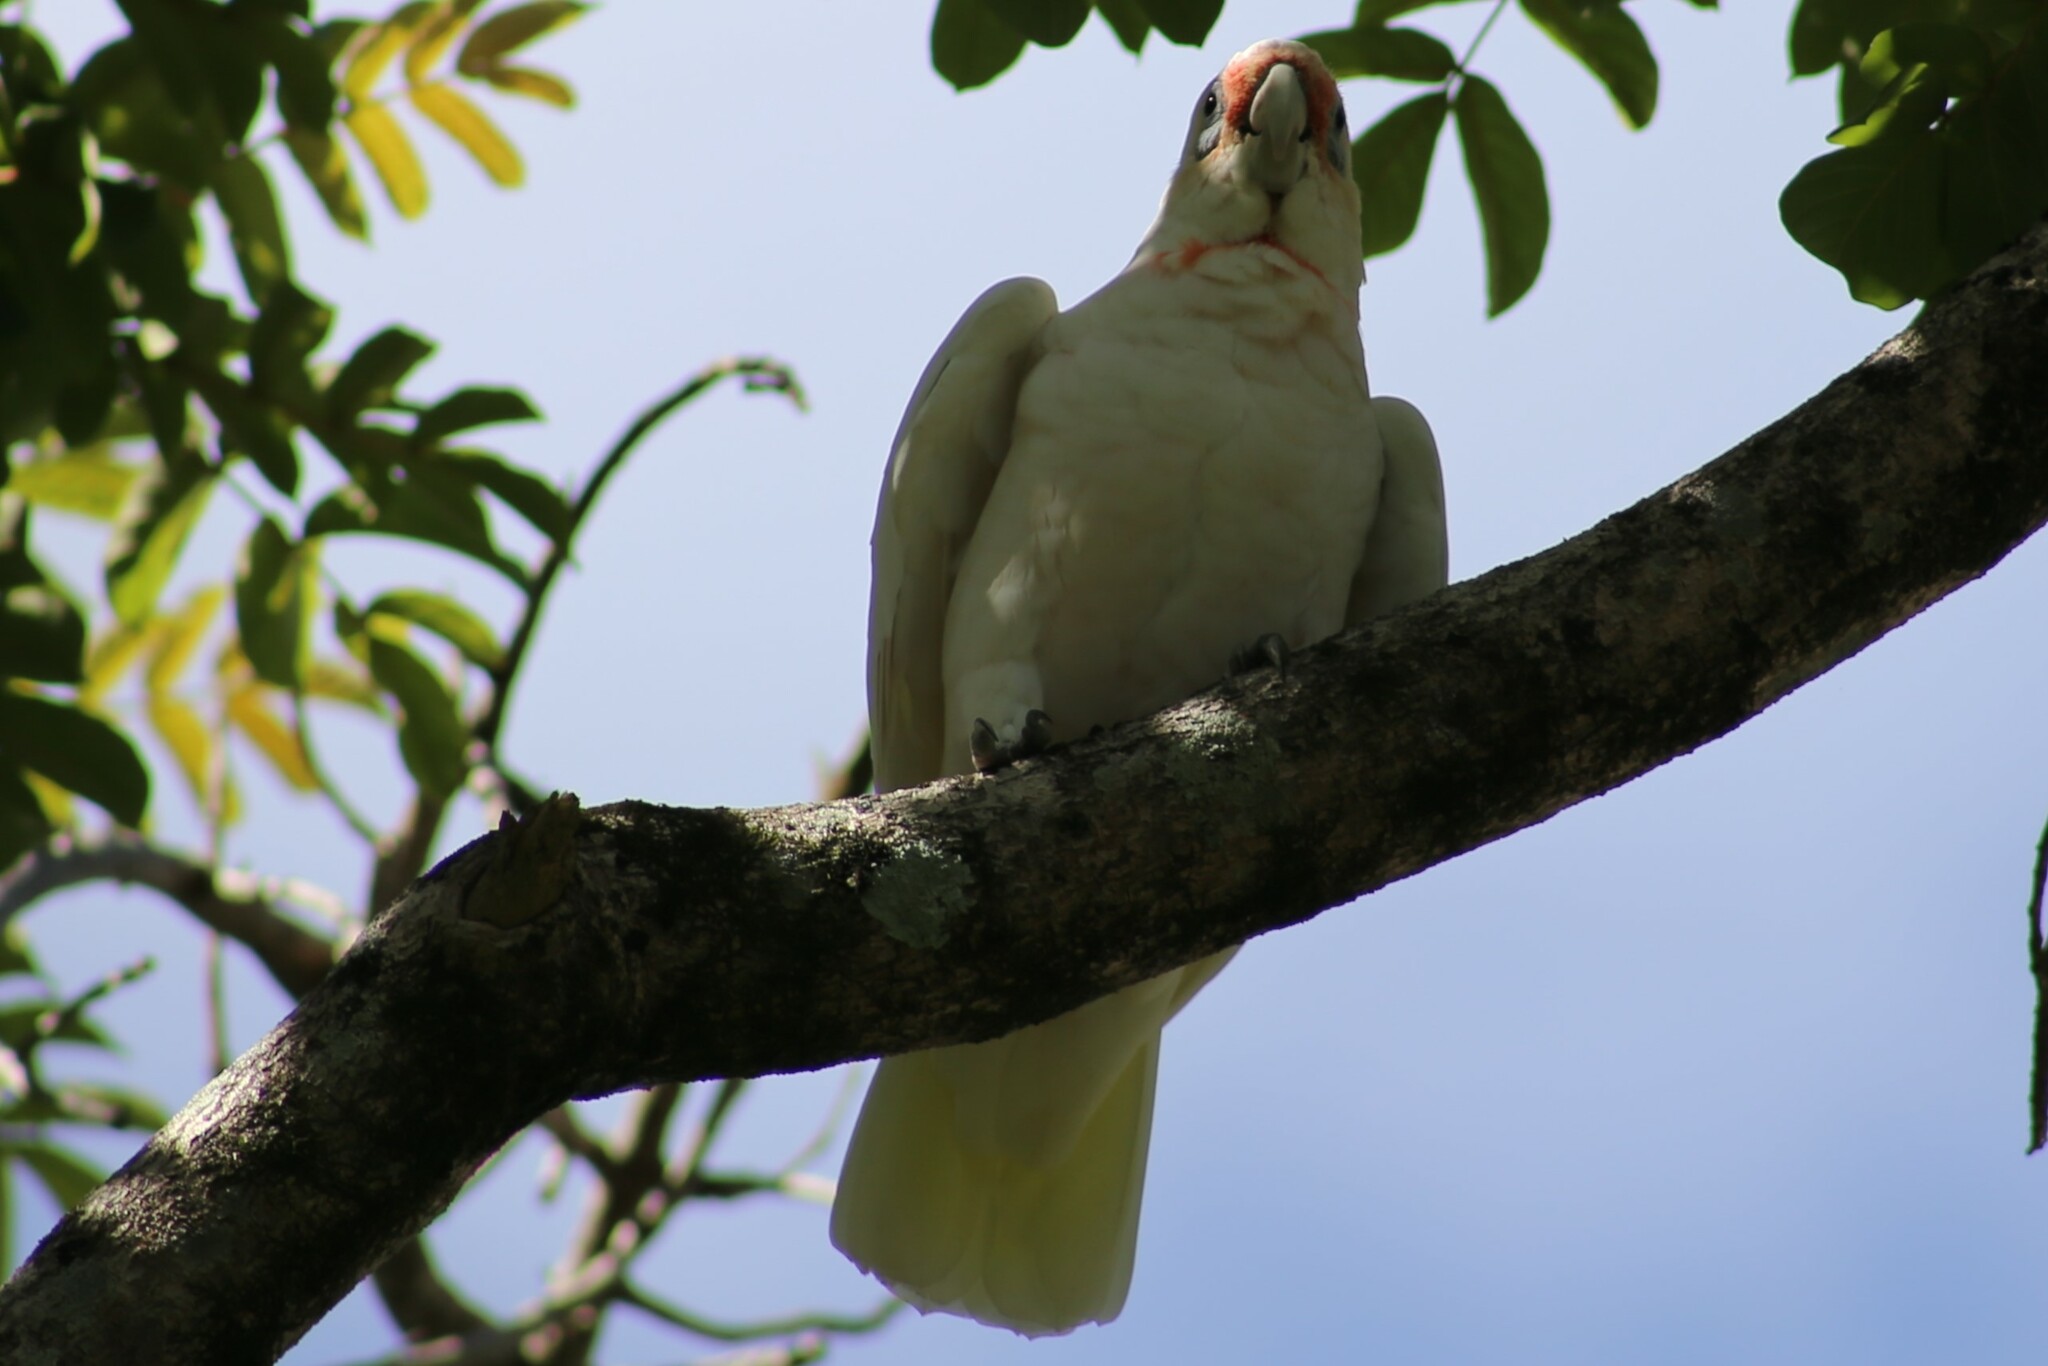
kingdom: Animalia
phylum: Chordata
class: Aves
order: Psittaciformes
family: Psittacidae
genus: Cacatua
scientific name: Cacatua tenuirostris
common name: Long-billed corella
